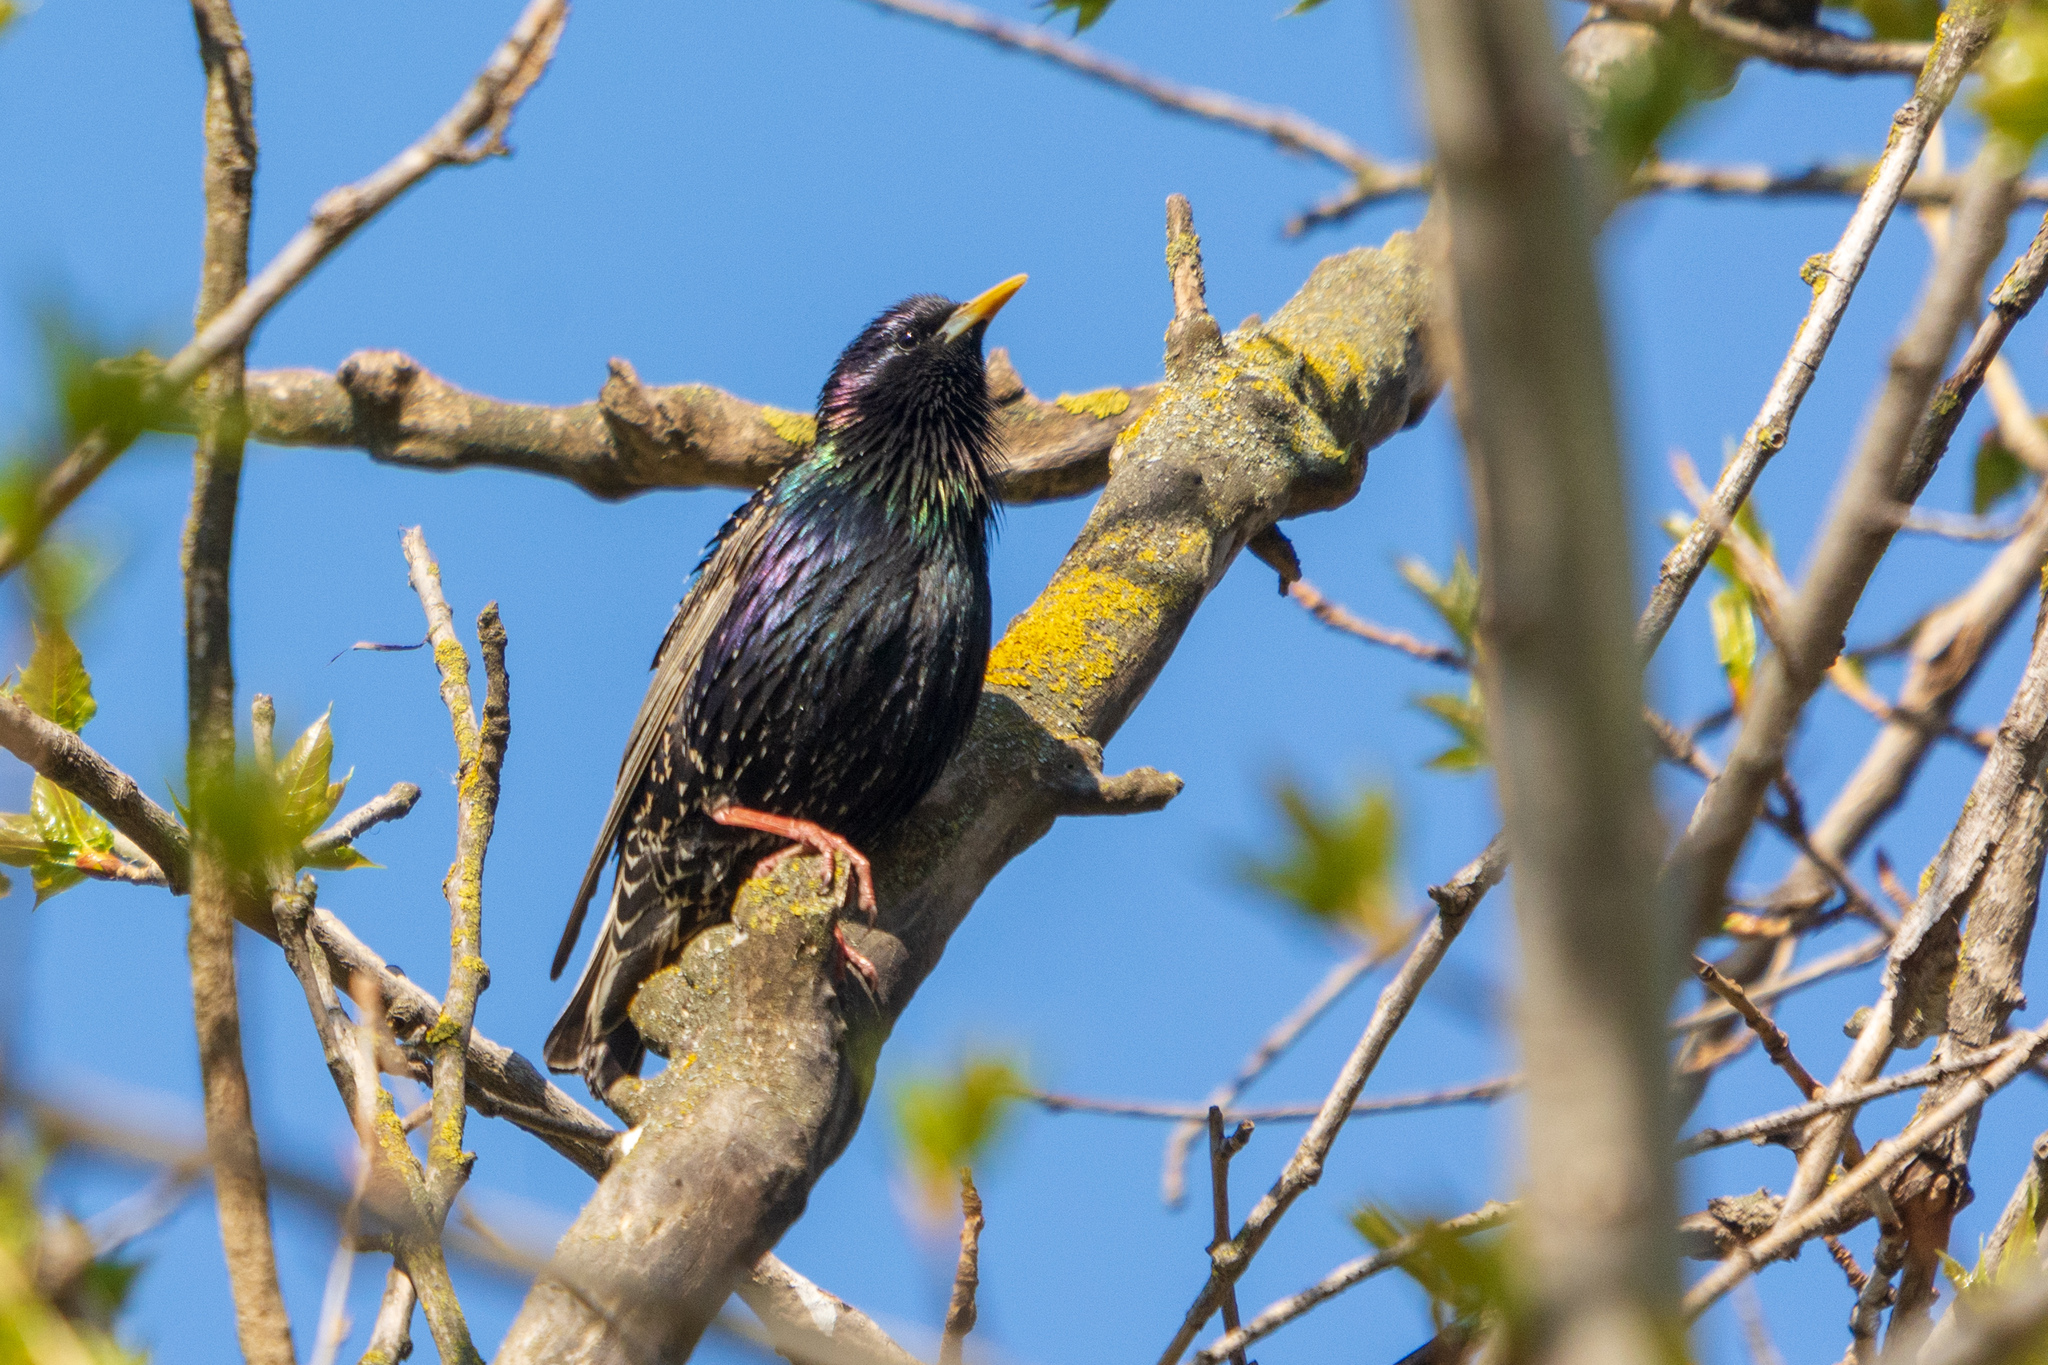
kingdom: Animalia
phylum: Chordata
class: Aves
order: Passeriformes
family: Sturnidae
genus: Sturnus
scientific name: Sturnus vulgaris
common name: Common starling
